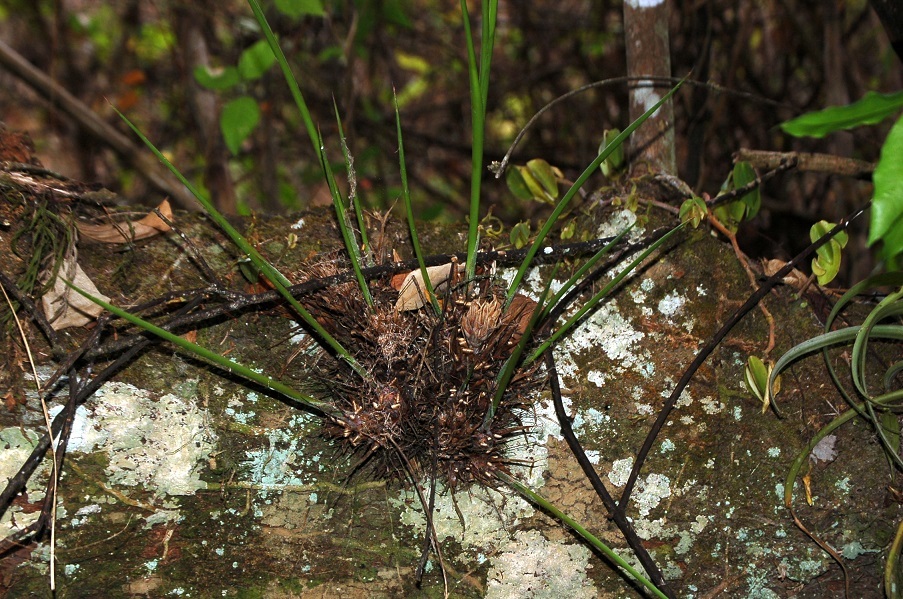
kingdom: Plantae
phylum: Tracheophyta
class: Liliopsida
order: Poales
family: Bromeliaceae
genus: Pitcairnia
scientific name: Pitcairnia heterophylla
